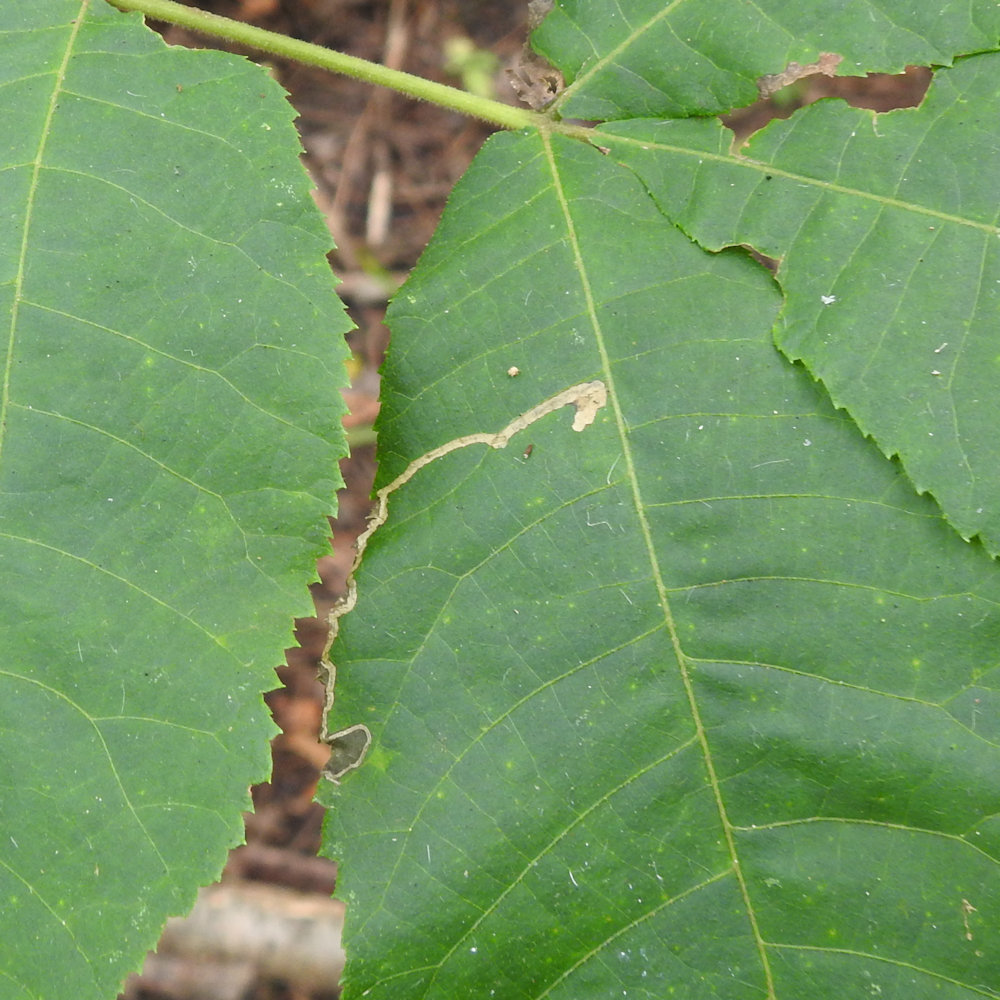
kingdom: Animalia
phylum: Arthropoda
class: Insecta
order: Lepidoptera
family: Nepticulidae
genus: Stigmella
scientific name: Stigmella caryaefoliella
